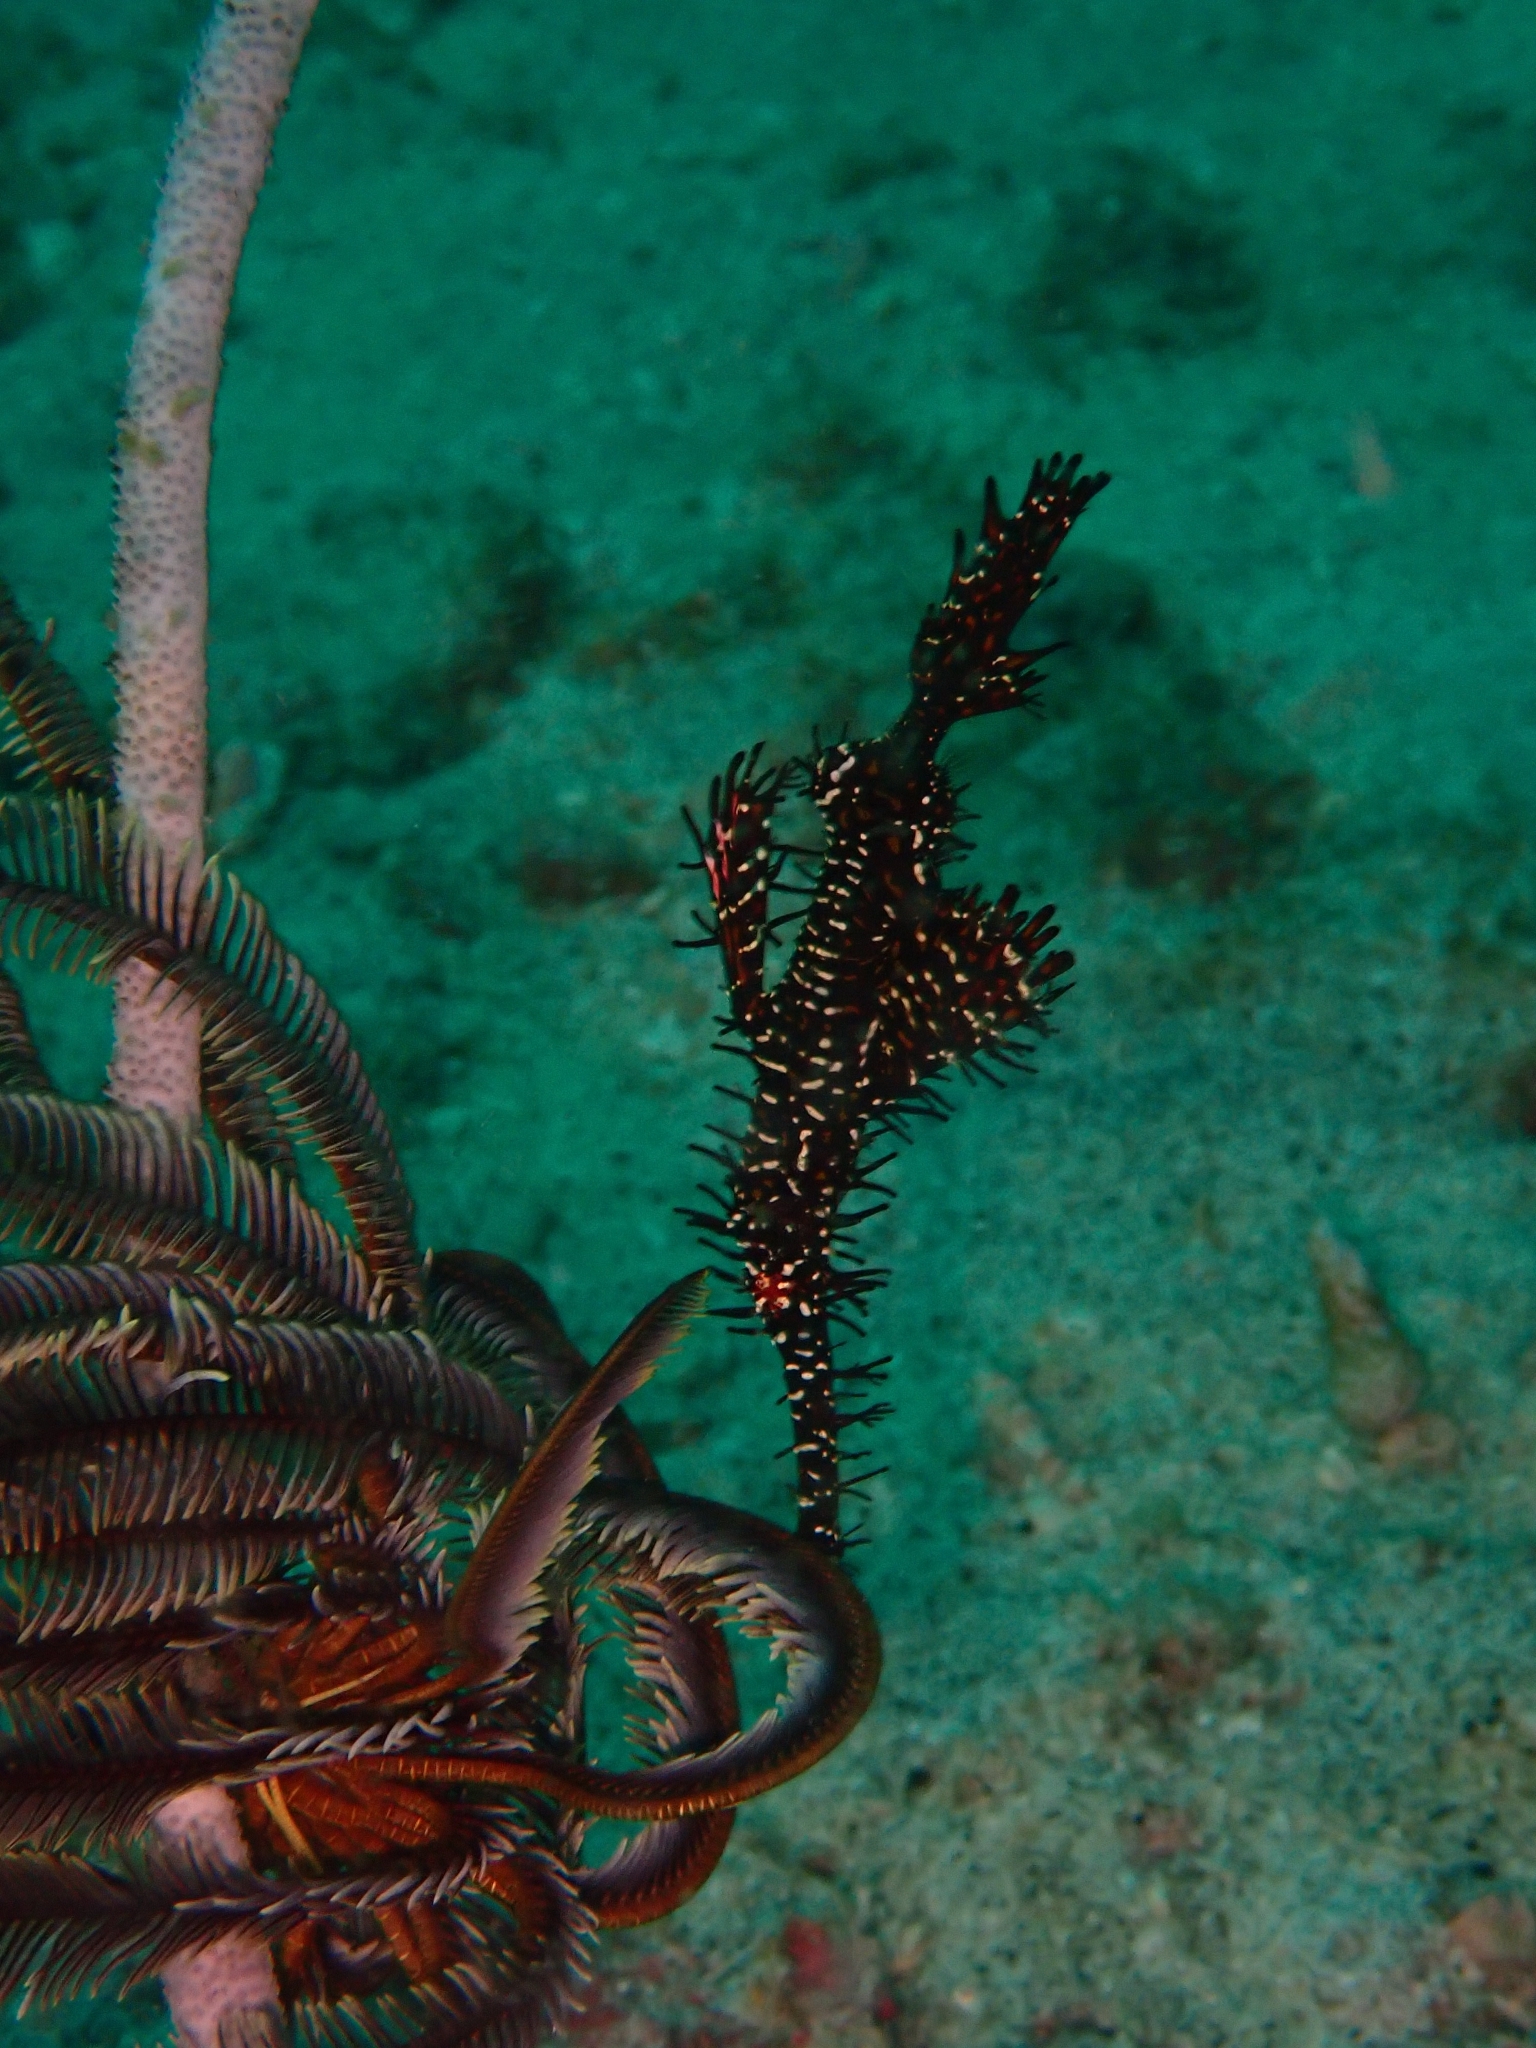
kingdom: Animalia
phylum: Chordata
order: Syngnathiformes
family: Solenostomidae
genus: Solenostomus
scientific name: Solenostomus paradoxus
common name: Ghost pipefish
